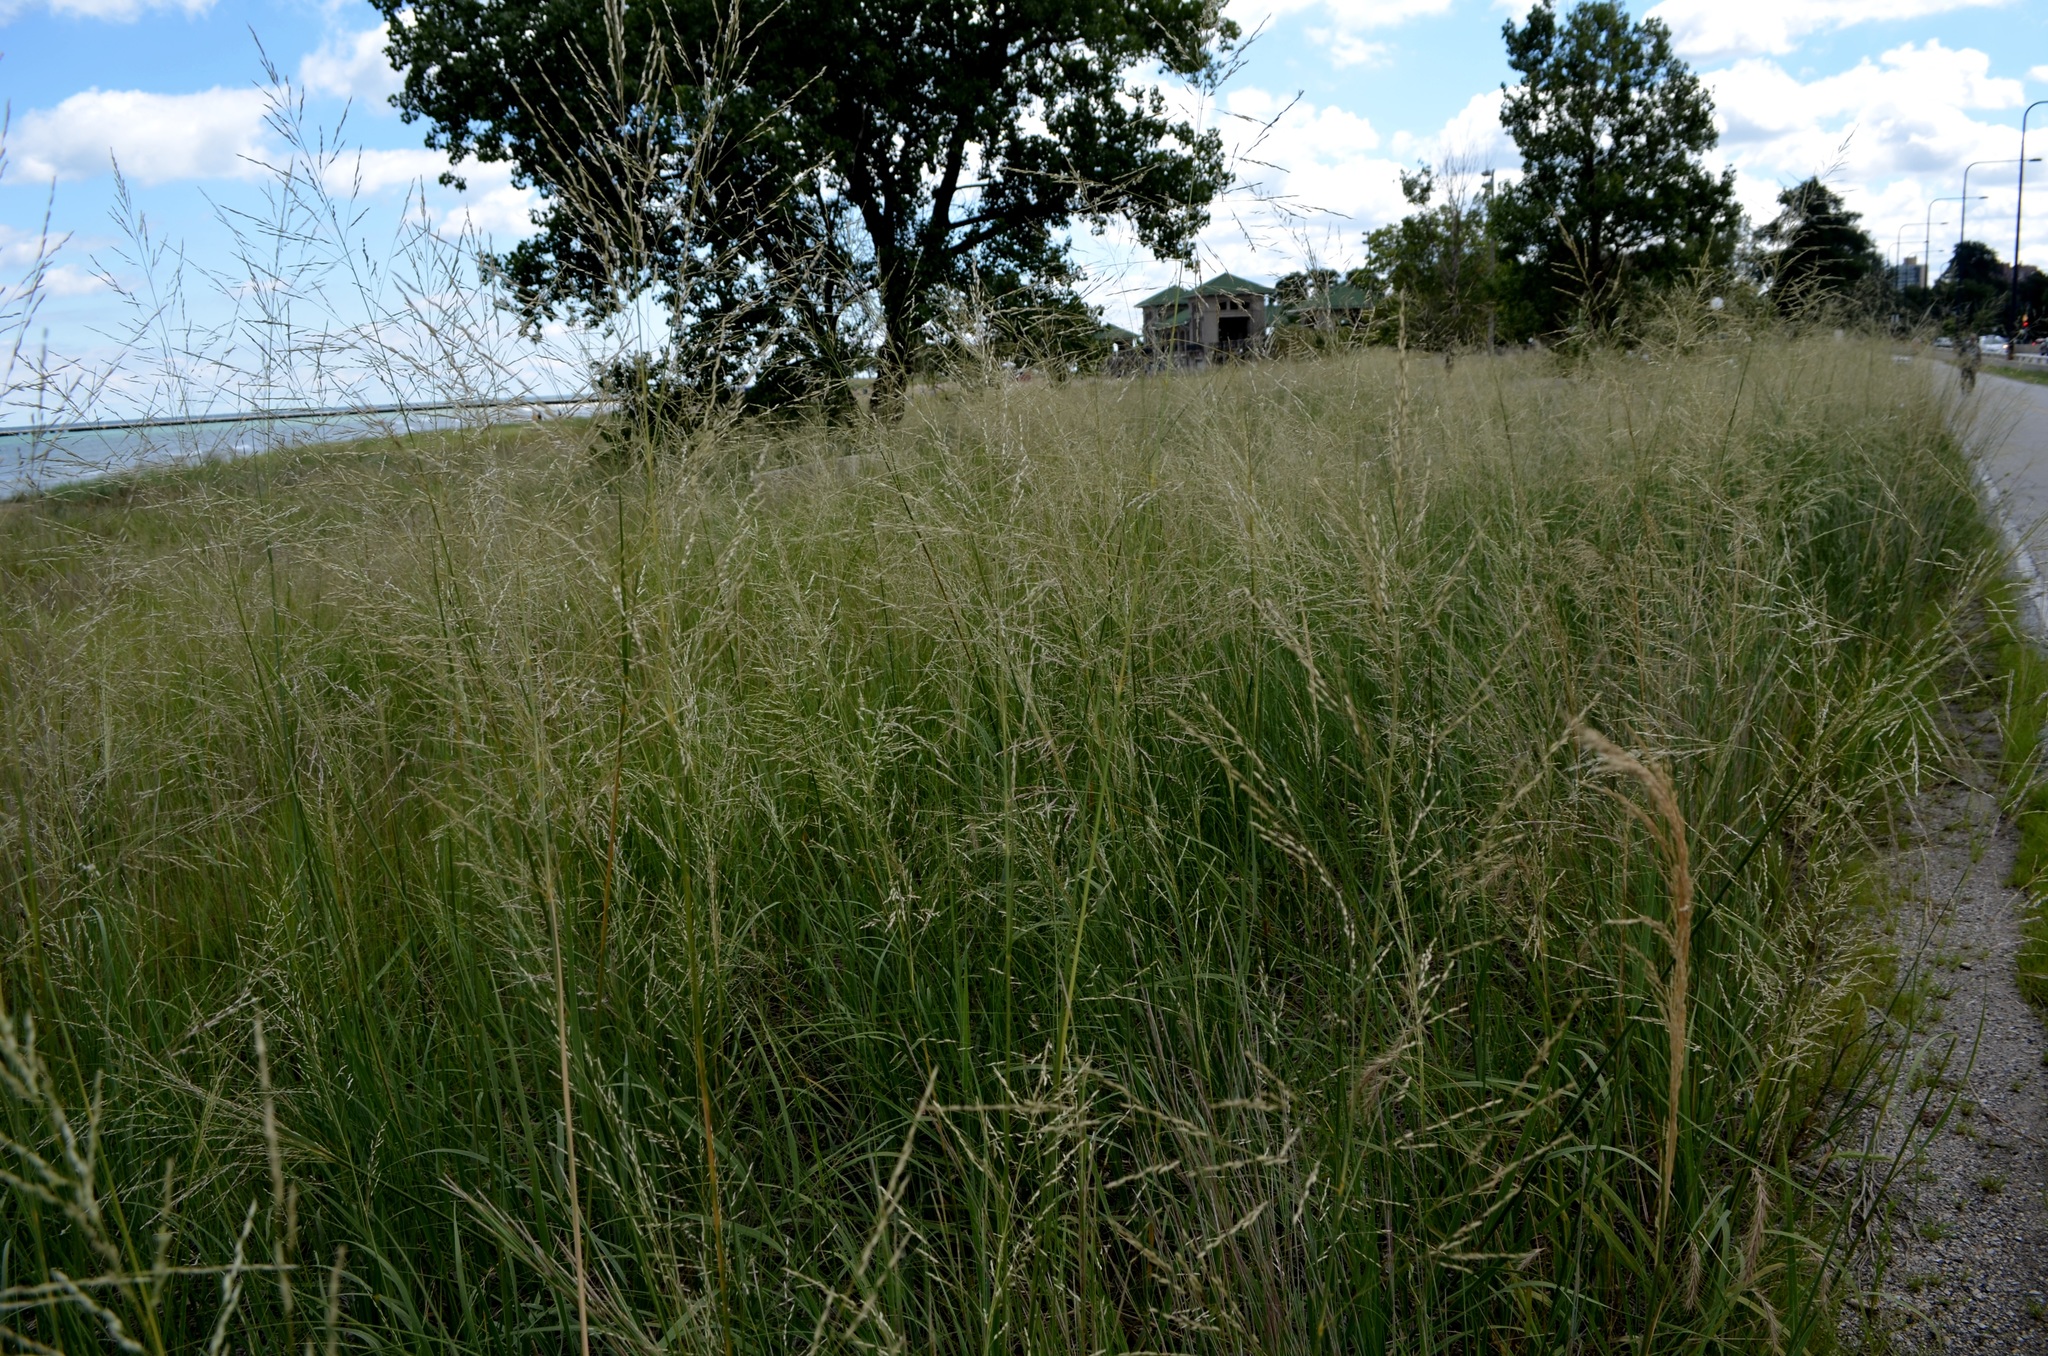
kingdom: Plantae
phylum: Tracheophyta
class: Liliopsida
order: Poales
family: Poaceae
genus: Sporobolus
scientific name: Sporobolus rigidus
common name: Prairie sandreed
